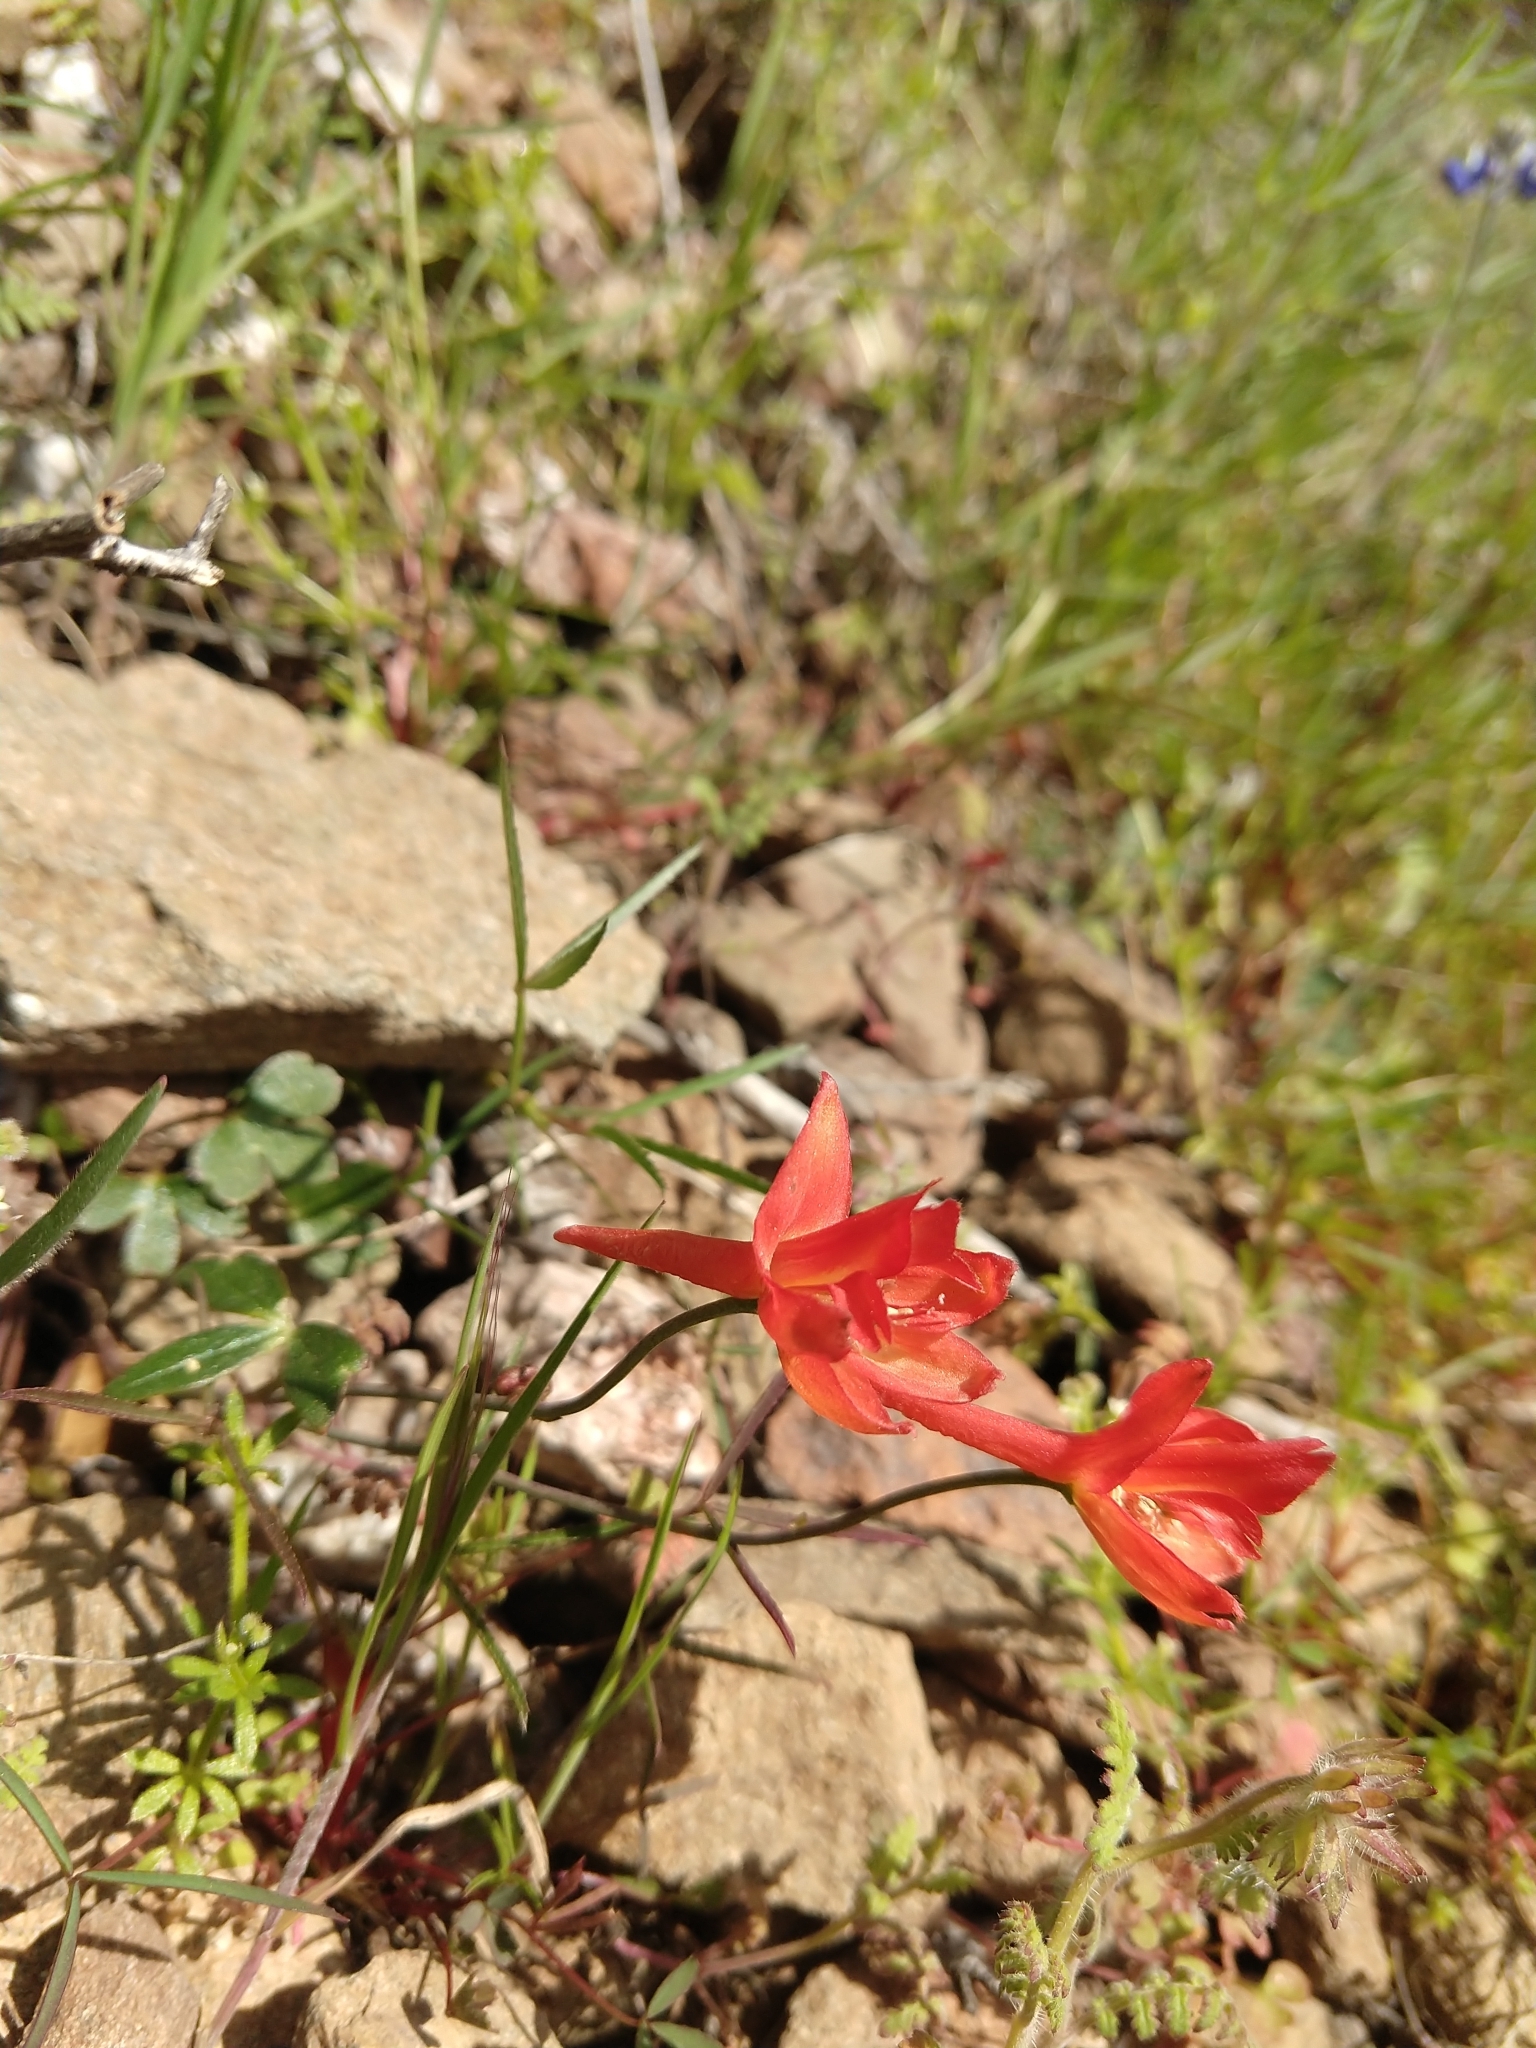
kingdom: Plantae
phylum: Tracheophyta
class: Magnoliopsida
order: Ranunculales
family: Ranunculaceae
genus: Delphinium
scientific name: Delphinium nudicaule
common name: Red larkspur
